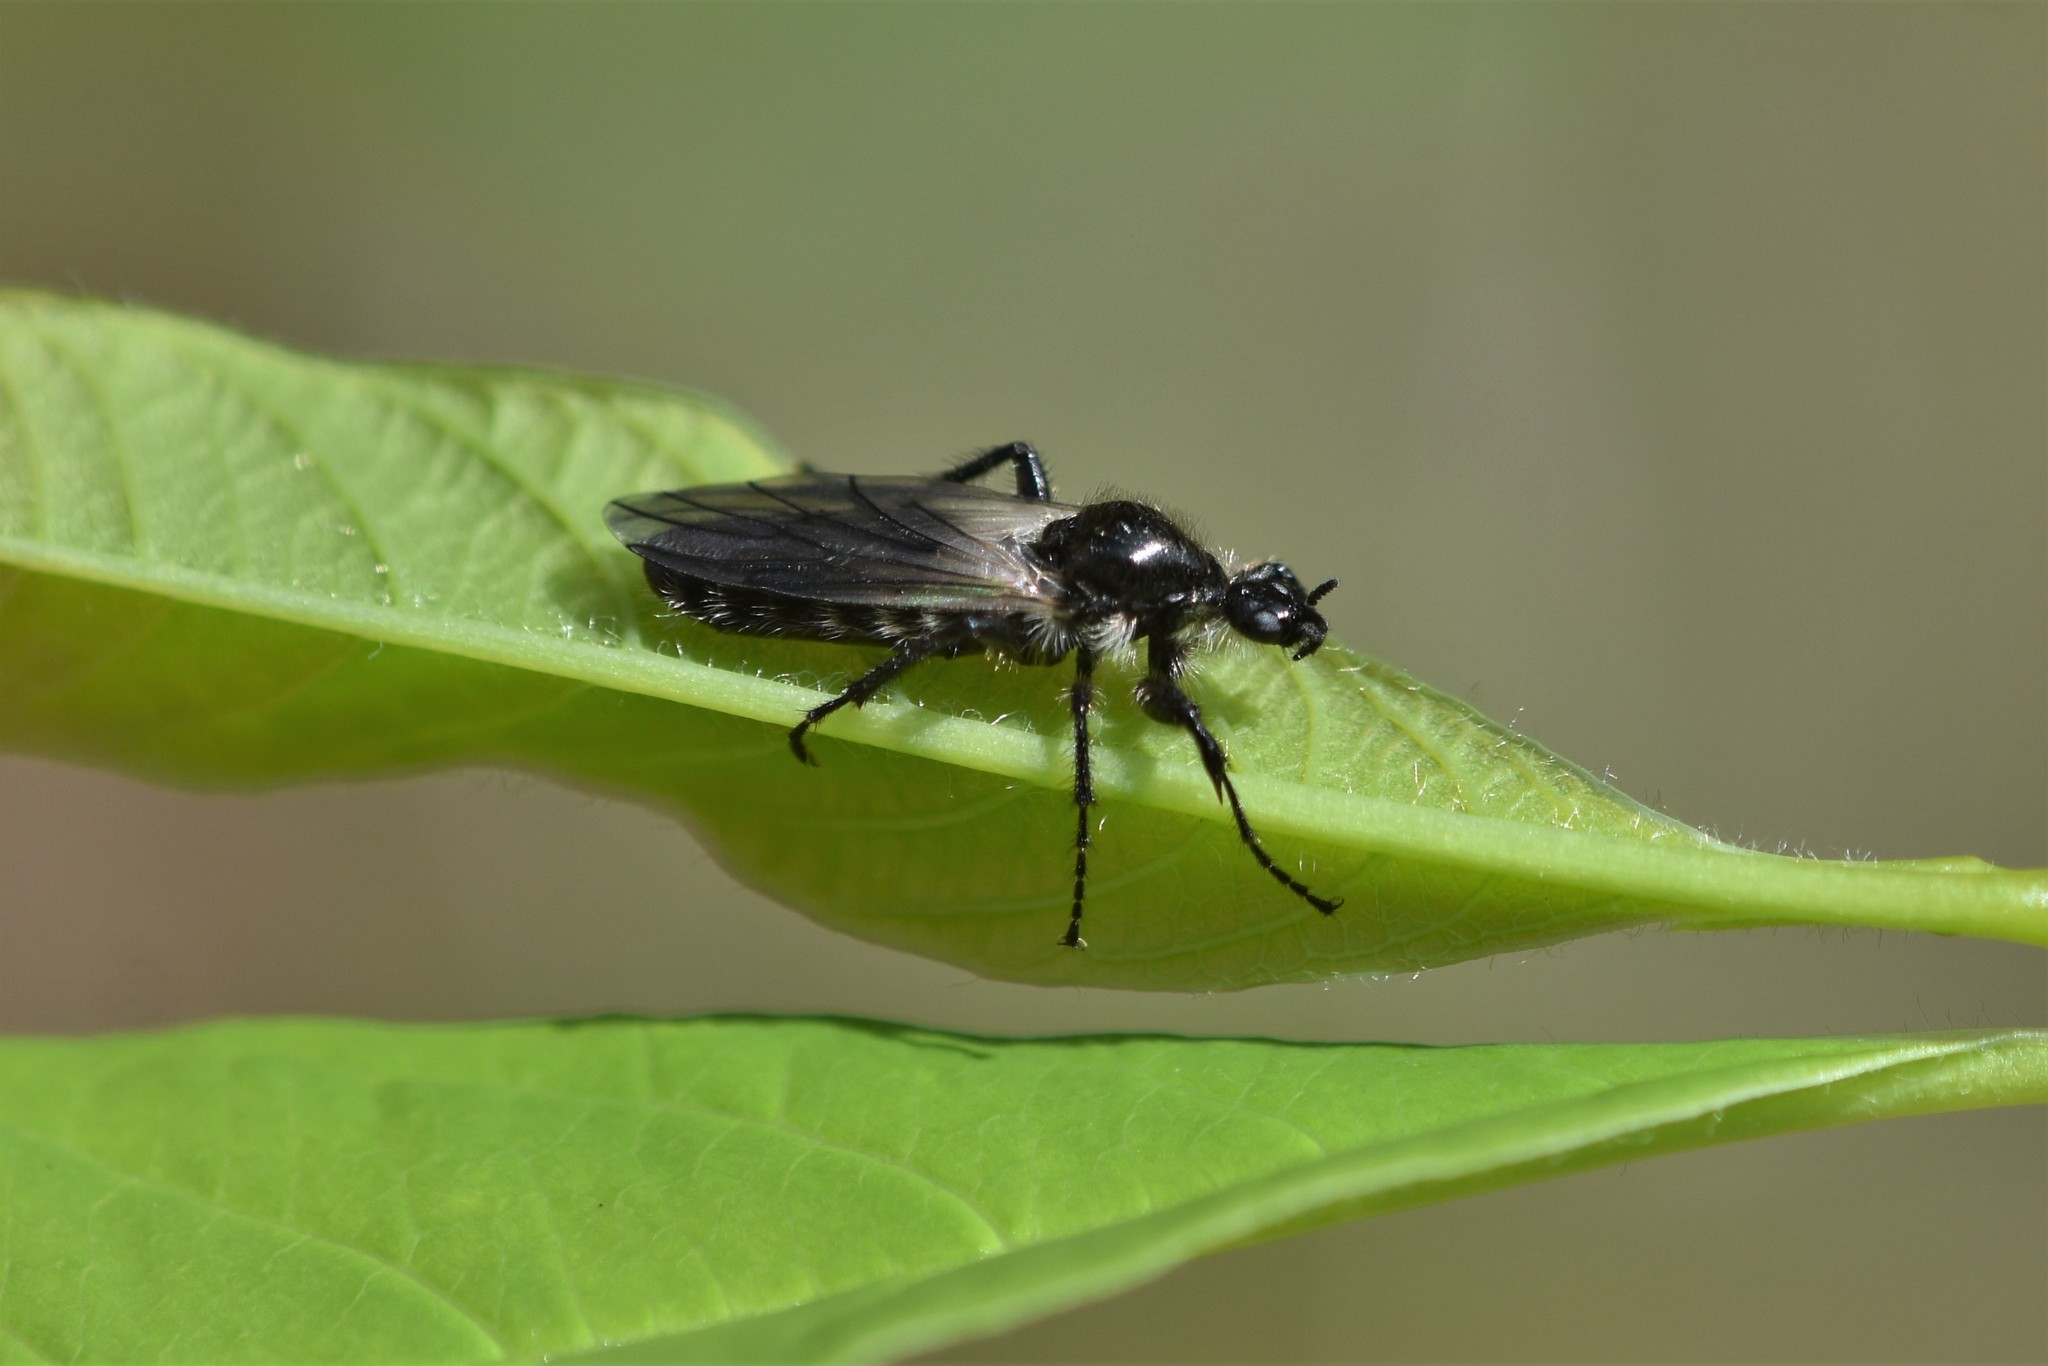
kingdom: Animalia
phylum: Arthropoda
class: Insecta
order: Diptera
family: Bibionidae
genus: Bibio
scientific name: Bibio albipennis
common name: White-winged march fly
